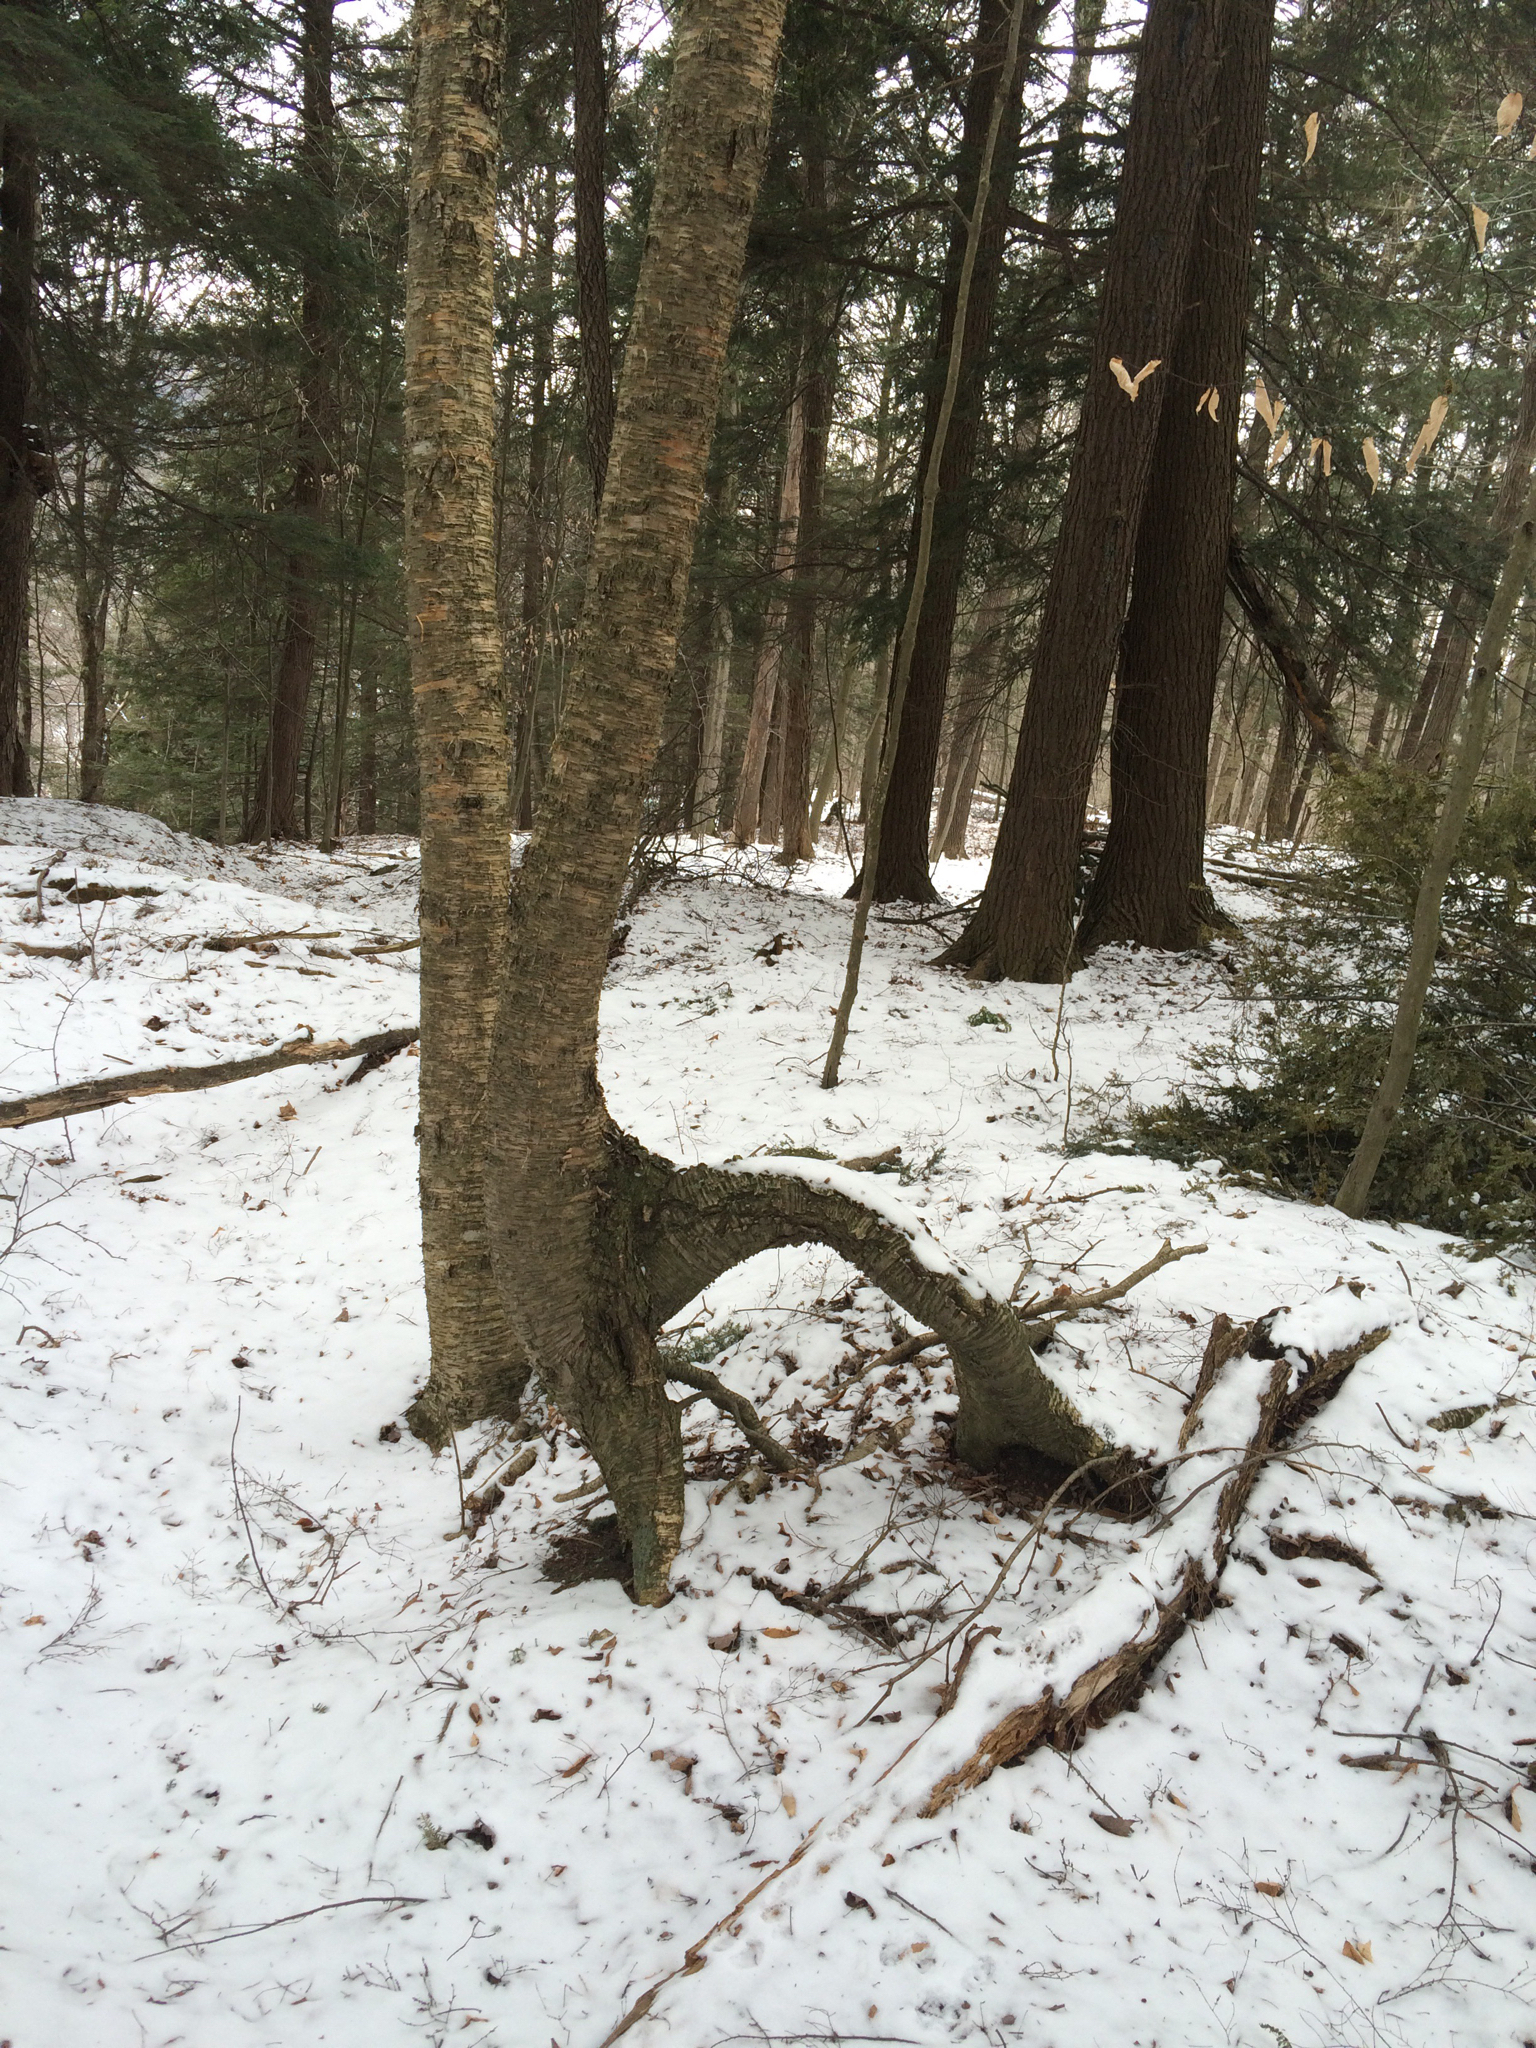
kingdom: Plantae
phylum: Tracheophyta
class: Magnoliopsida
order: Fagales
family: Betulaceae
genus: Betula
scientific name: Betula alleghaniensis
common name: Yellow birch
